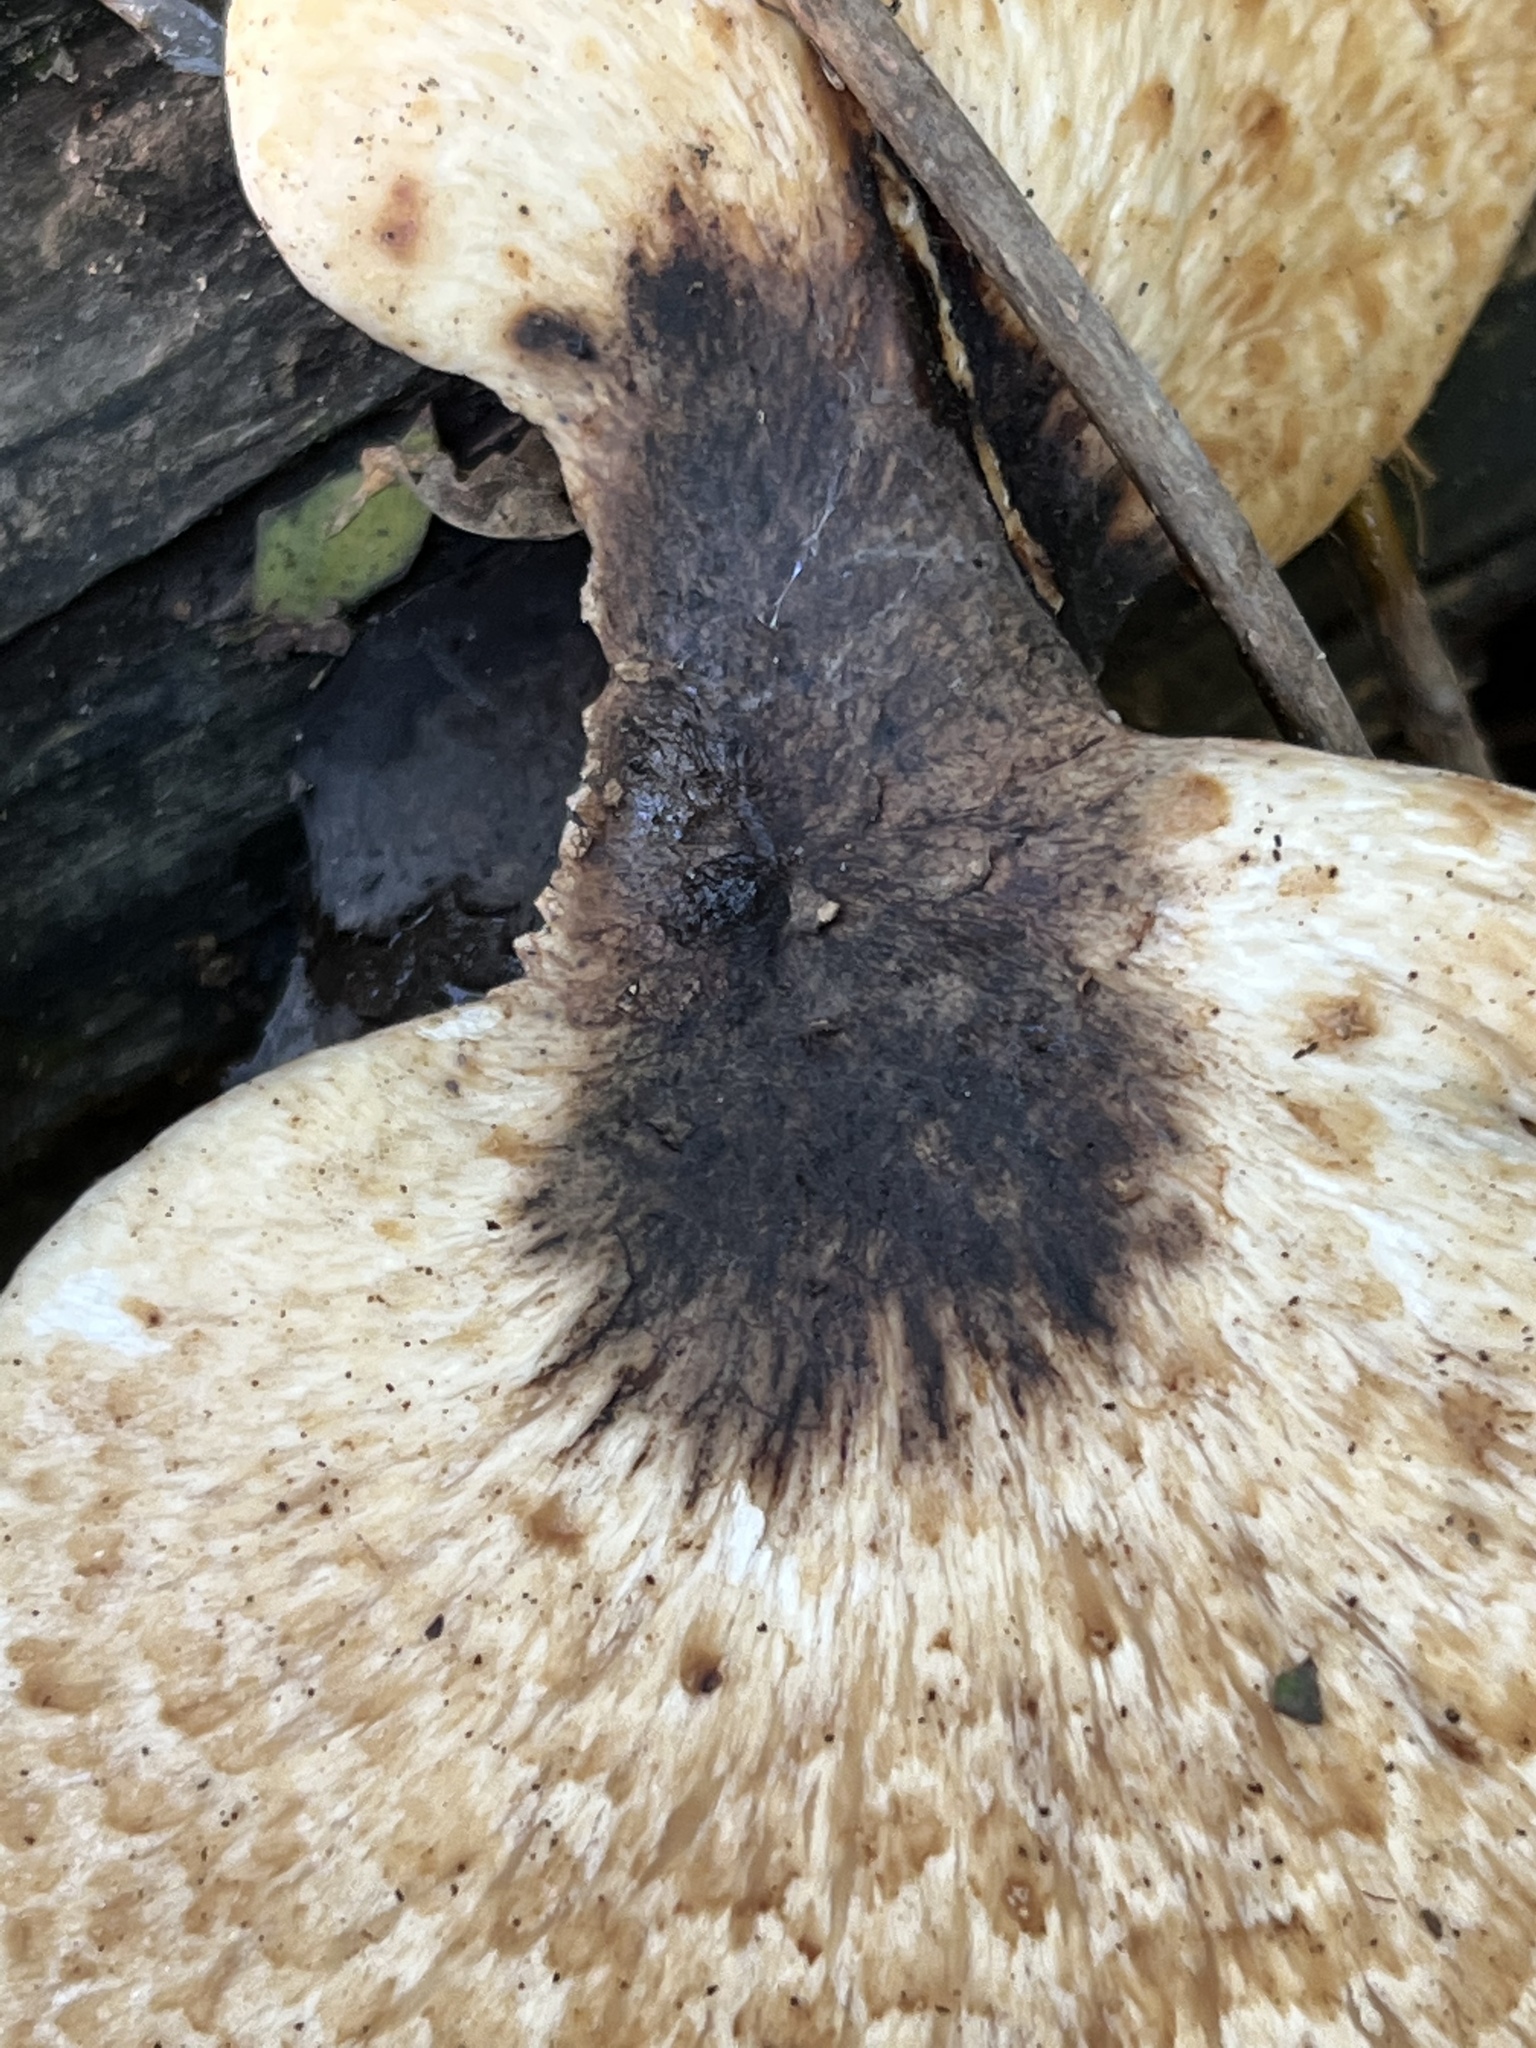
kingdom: Fungi
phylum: Basidiomycota
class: Agaricomycetes
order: Polyporales
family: Polyporaceae
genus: Cerioporus
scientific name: Cerioporus squamosus
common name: Dryad's saddle
